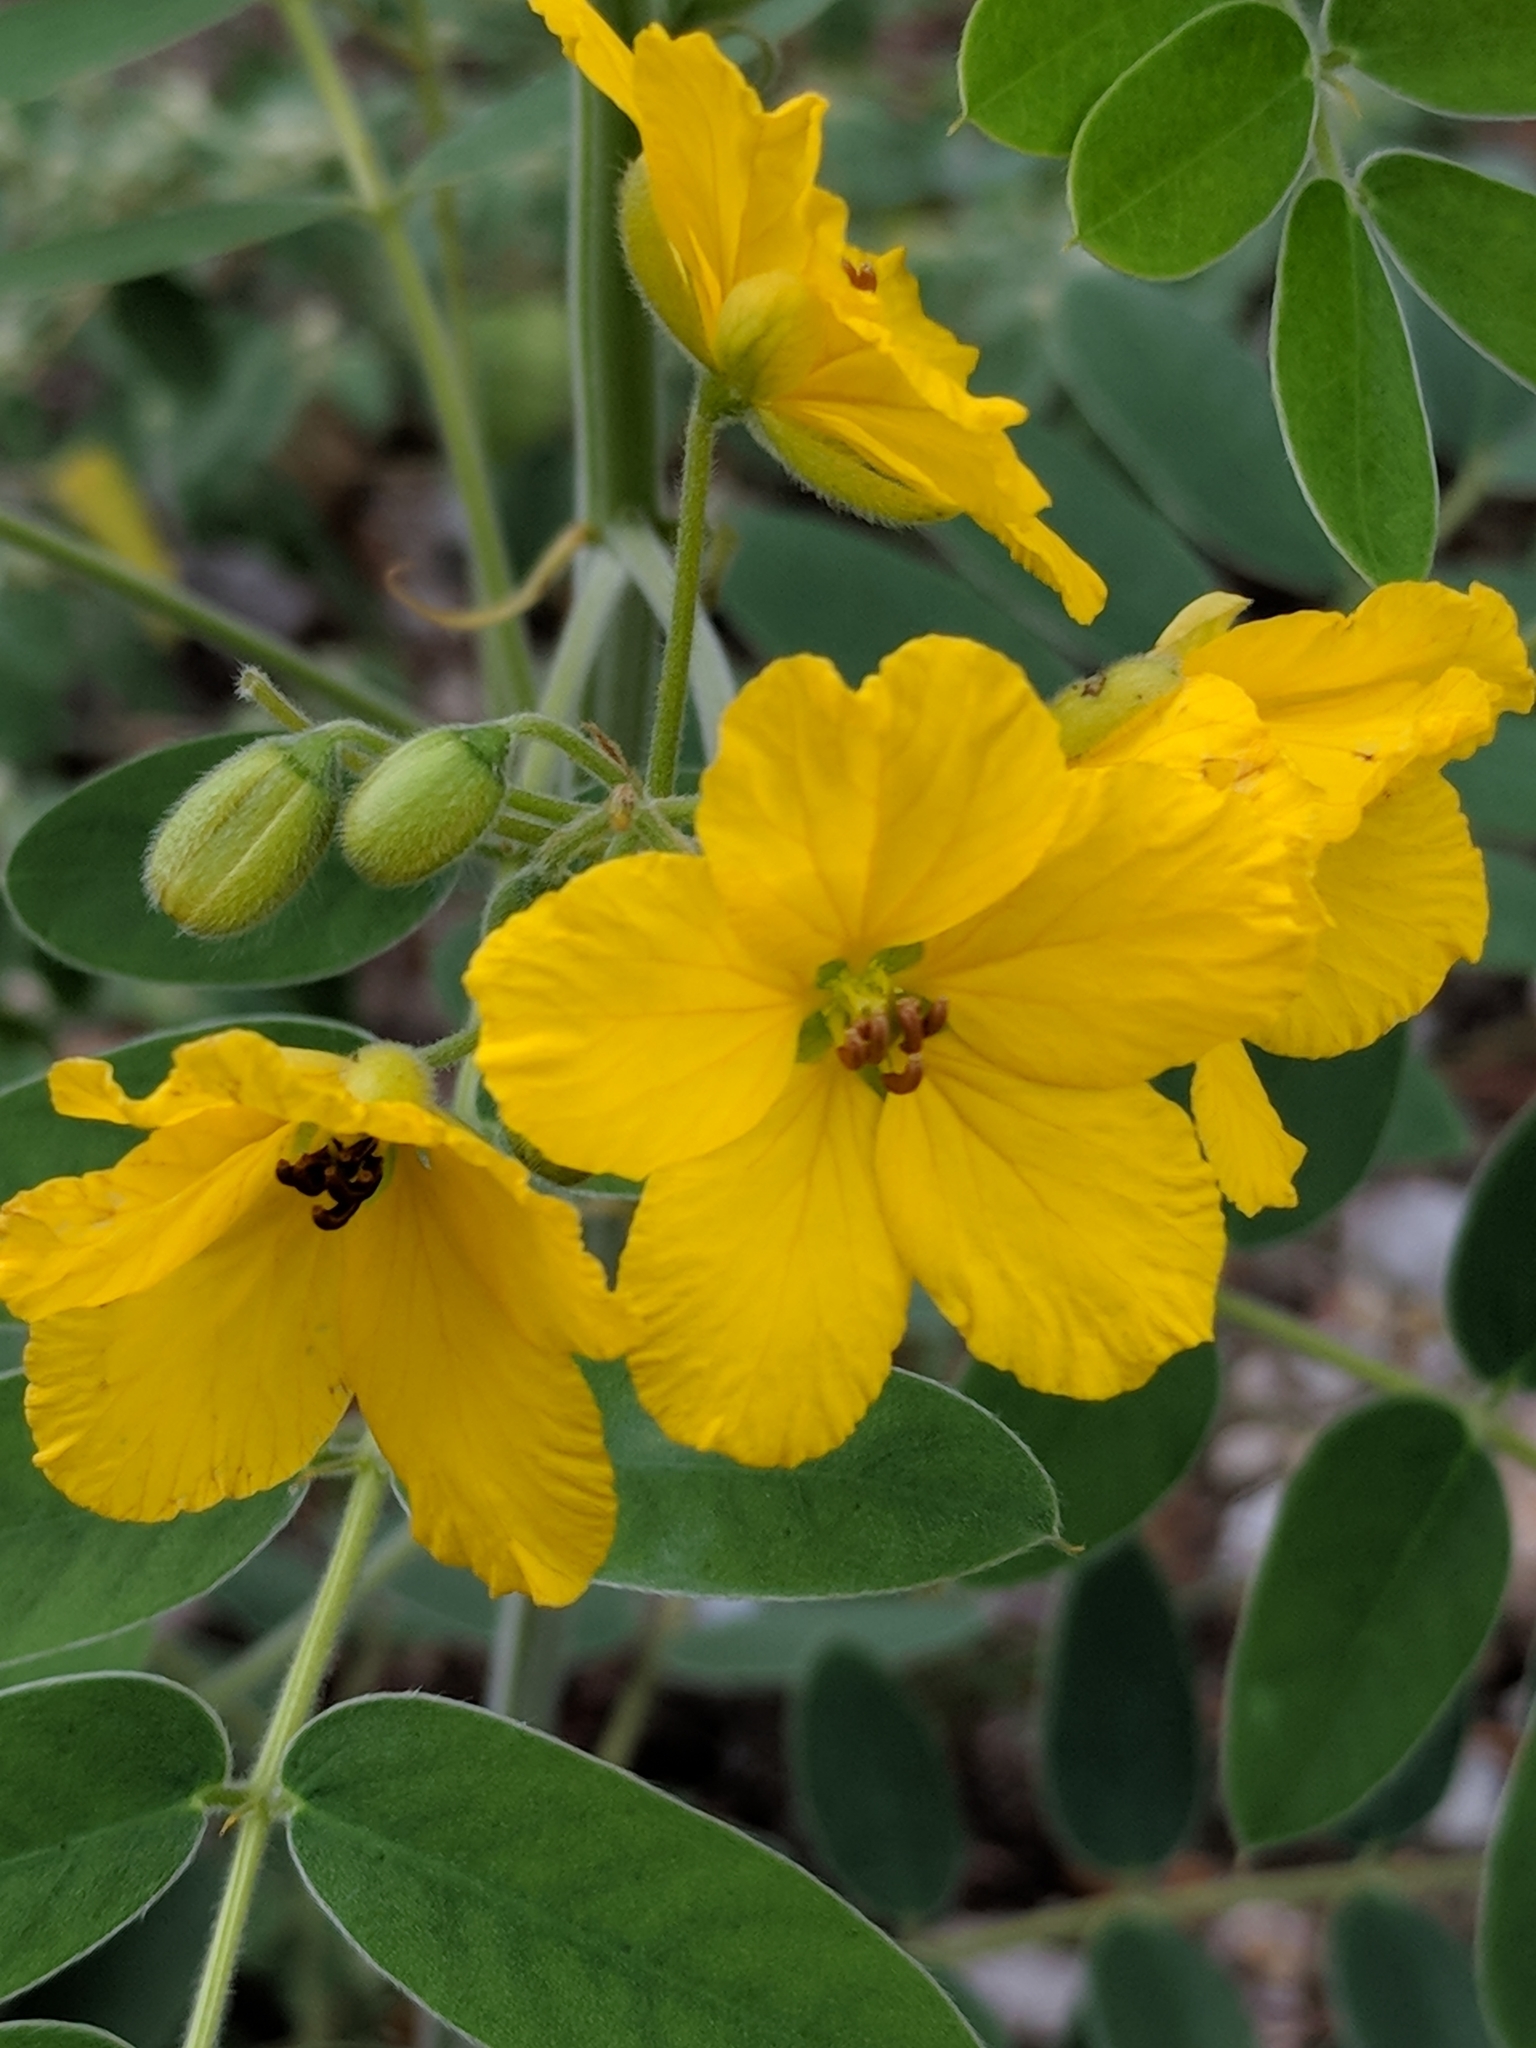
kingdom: Plantae
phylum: Tracheophyta
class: Magnoliopsida
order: Fabales
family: Fabaceae
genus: Senna
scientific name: Senna lindheimeriana
